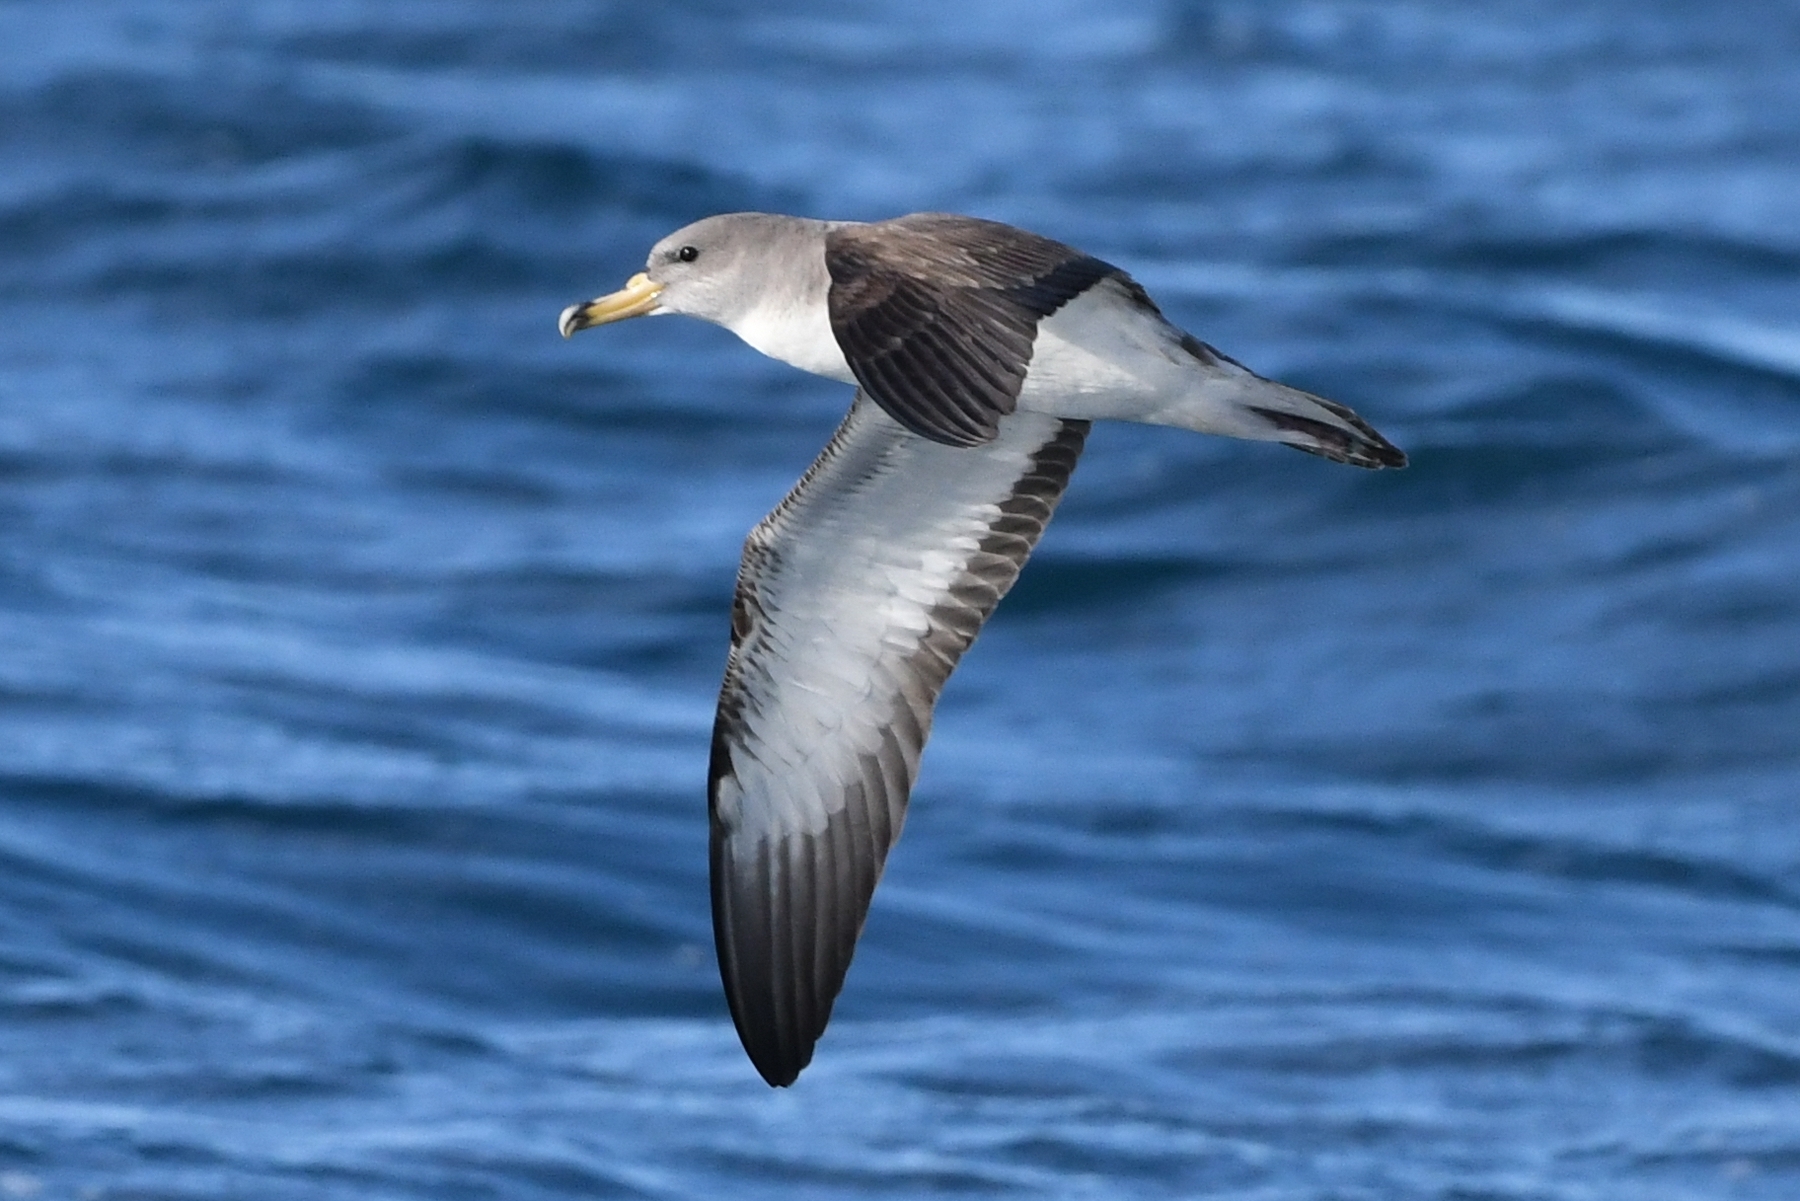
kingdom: Animalia
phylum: Chordata
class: Aves
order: Procellariiformes
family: Procellariidae
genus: Calonectris
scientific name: Calonectris diomedea
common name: Cory's shearwater
